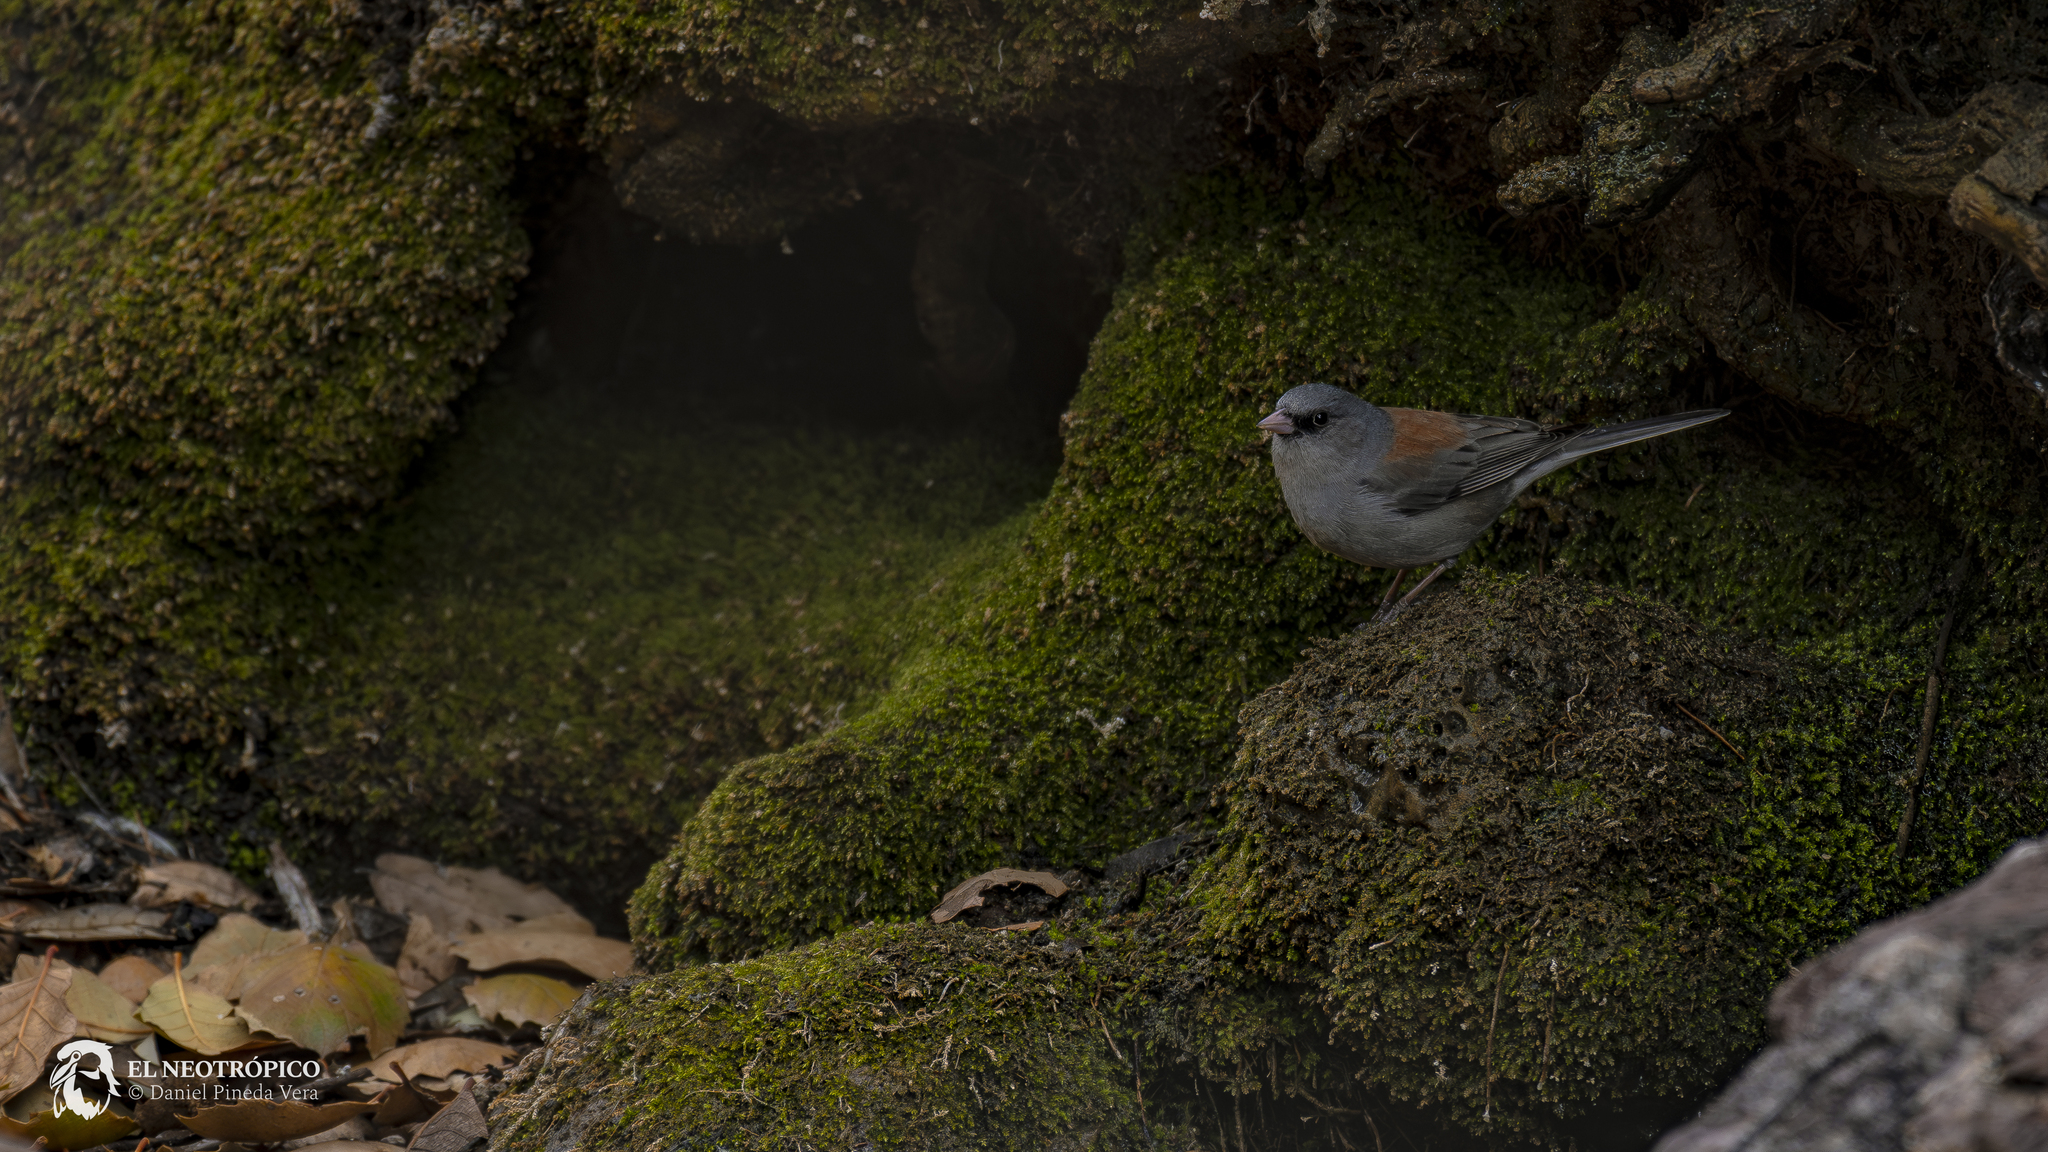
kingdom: Animalia
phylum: Chordata
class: Aves
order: Passeriformes
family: Passerellidae
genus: Junco
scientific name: Junco hyemalis
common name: Dark-eyed junco
